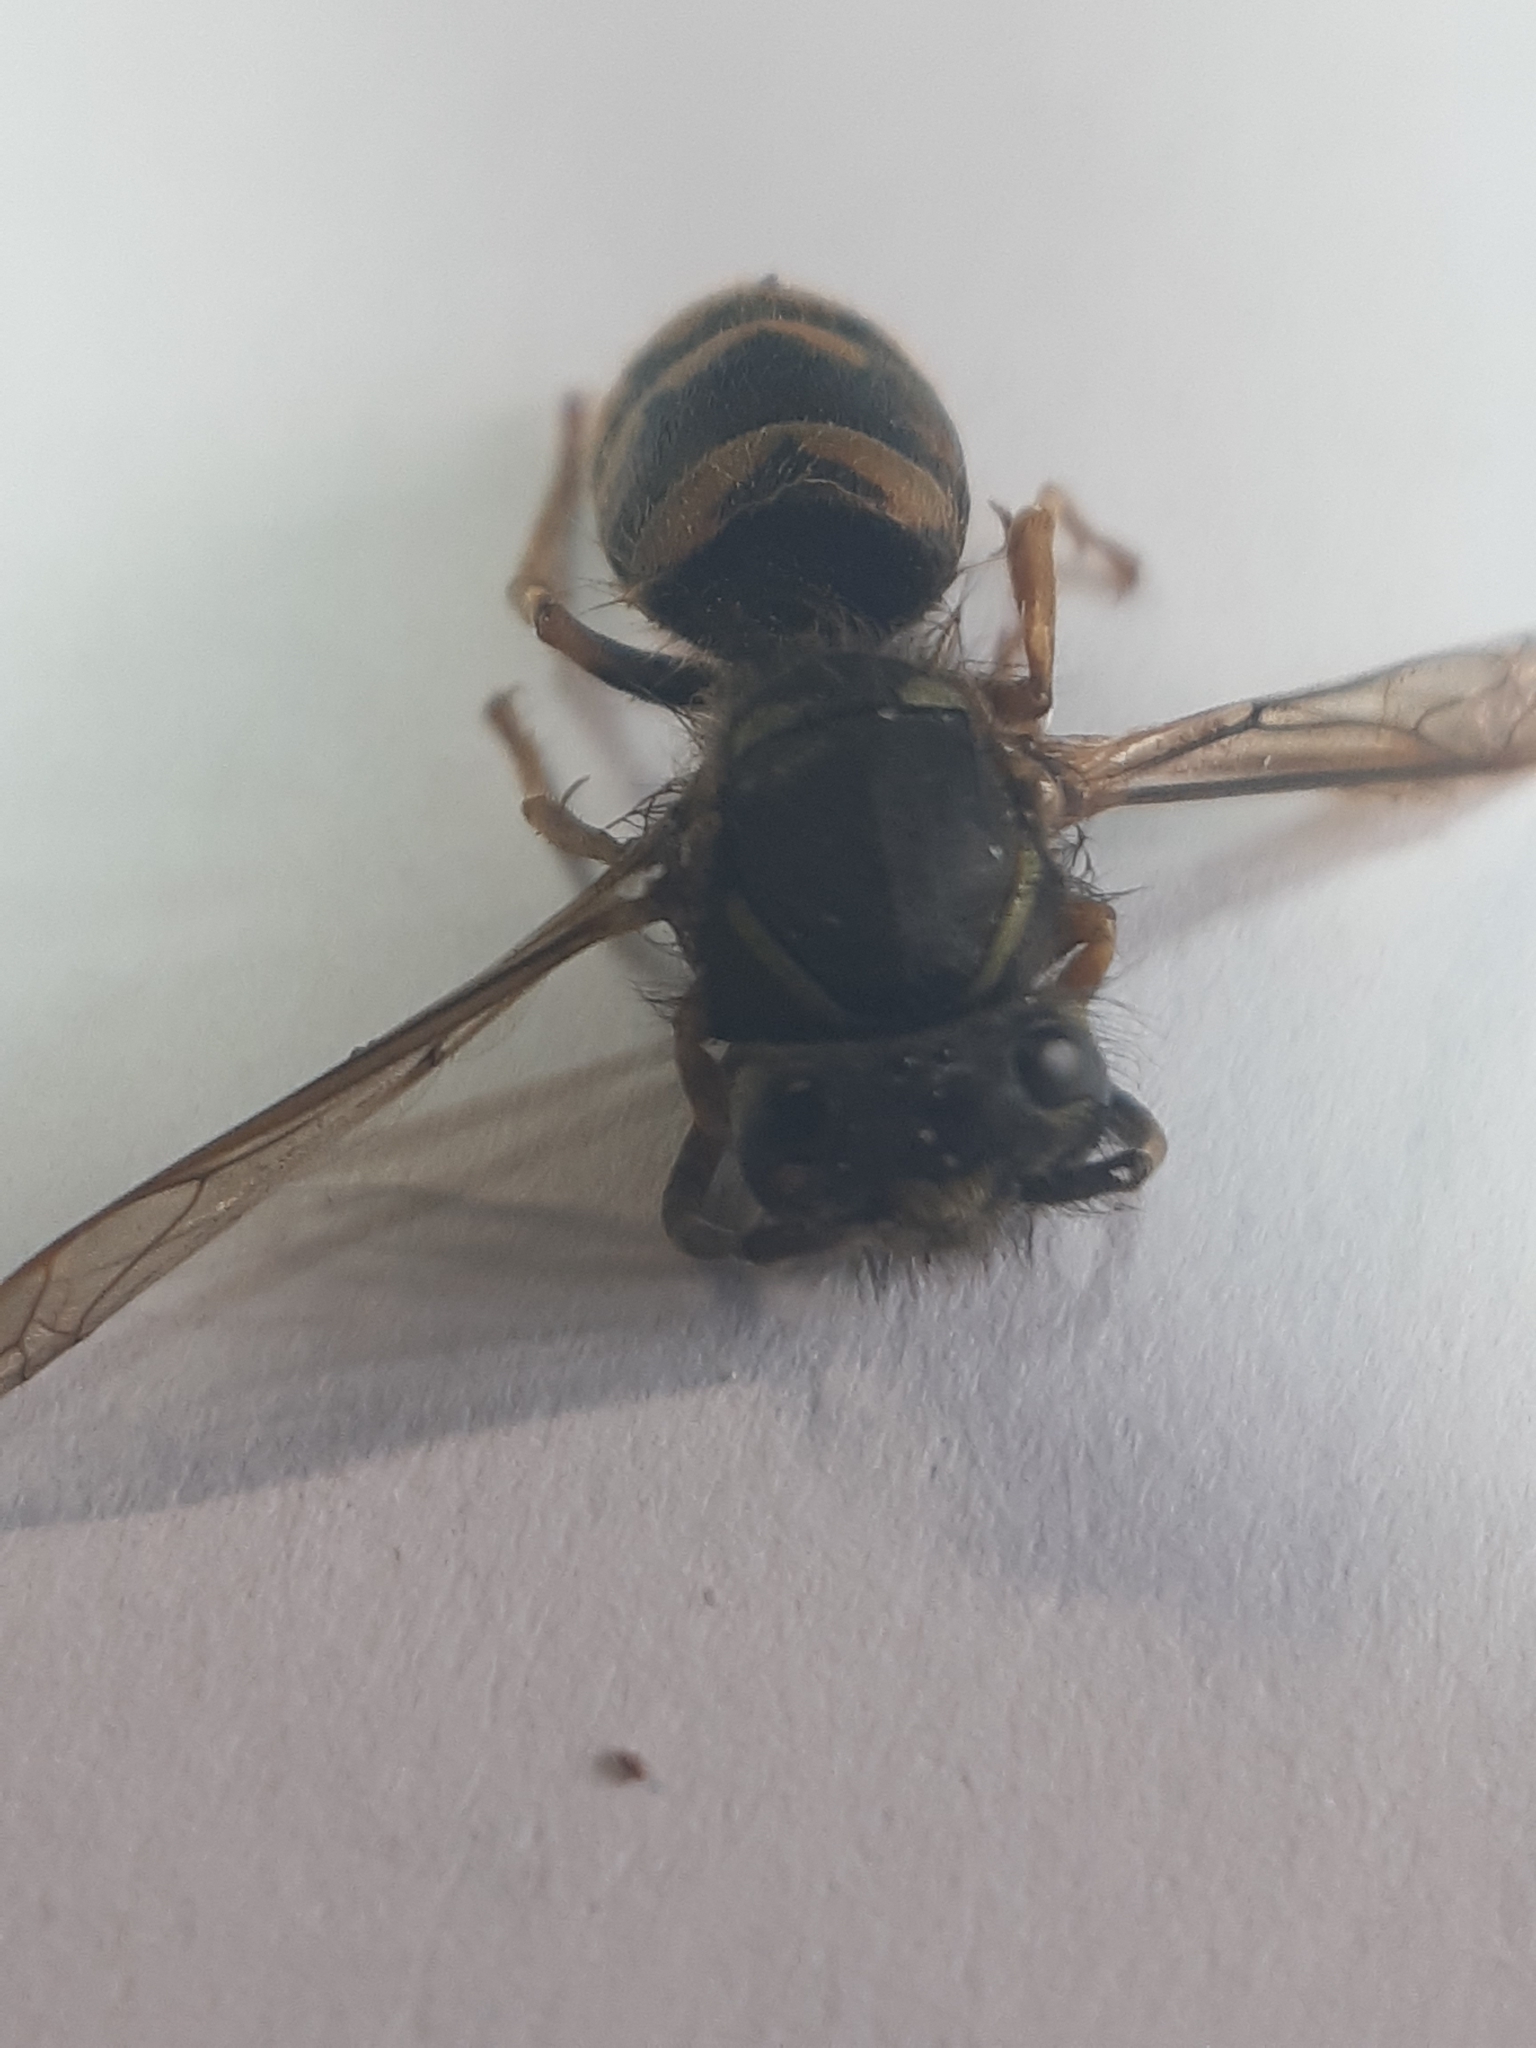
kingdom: Animalia
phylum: Arthropoda
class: Insecta
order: Hymenoptera
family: Vespidae
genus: Vespula
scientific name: Vespula vulgaris
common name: Common wasp
